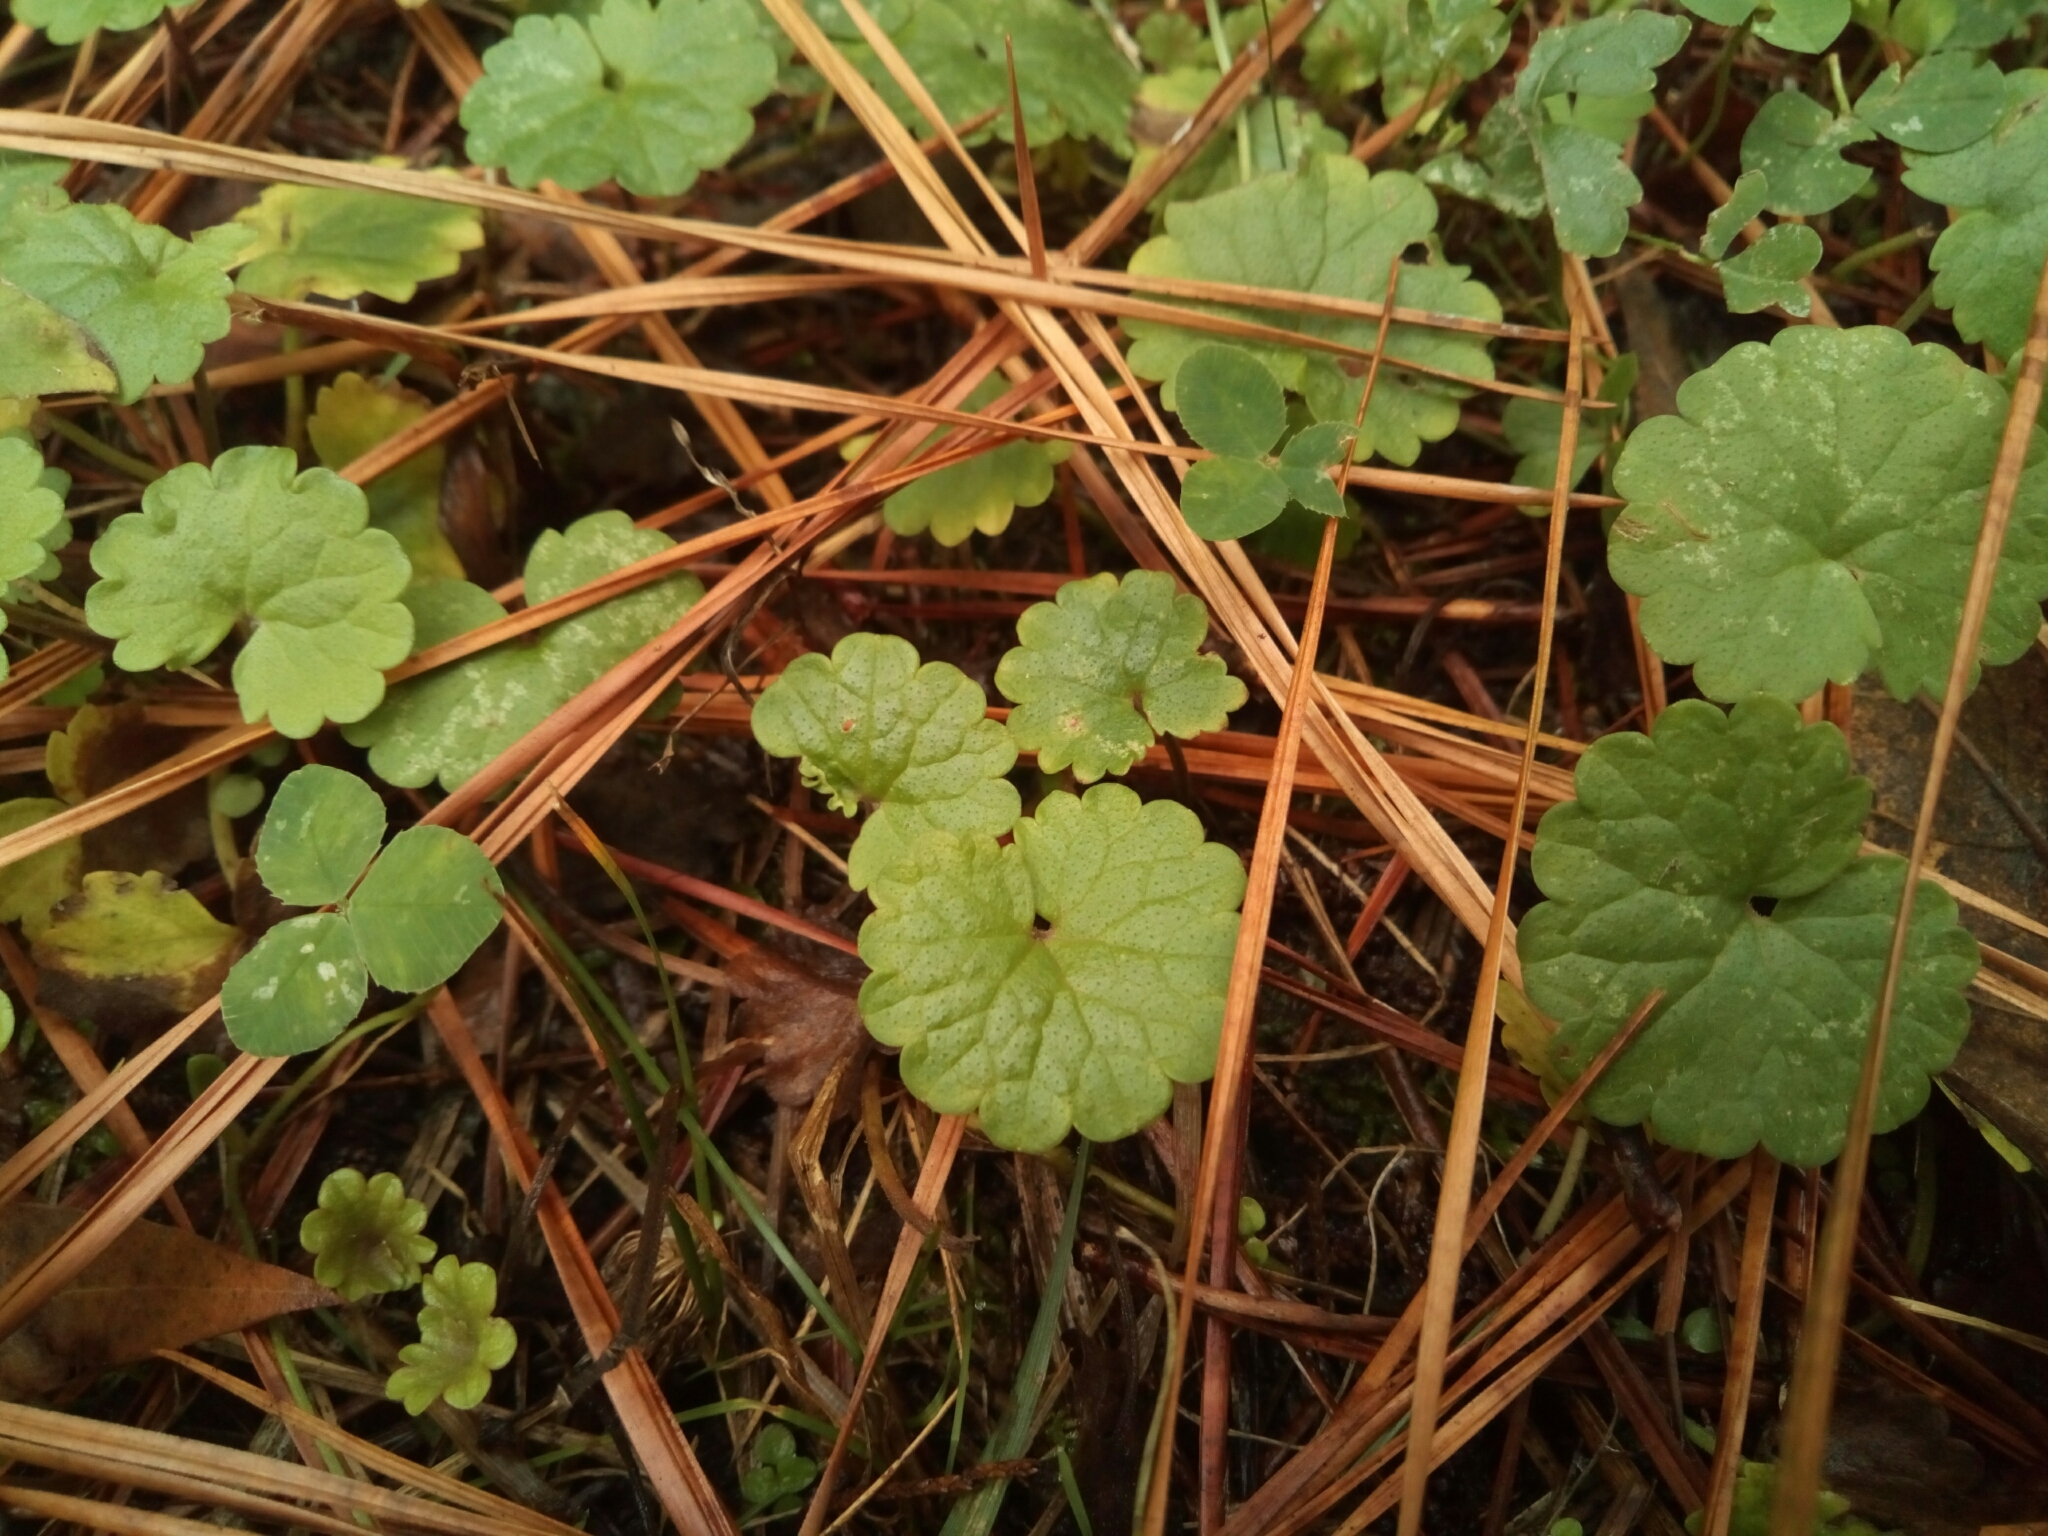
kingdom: Plantae
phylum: Tracheophyta
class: Magnoliopsida
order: Lamiales
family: Lamiaceae
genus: Glechoma
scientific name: Glechoma hederacea
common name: Ground ivy
